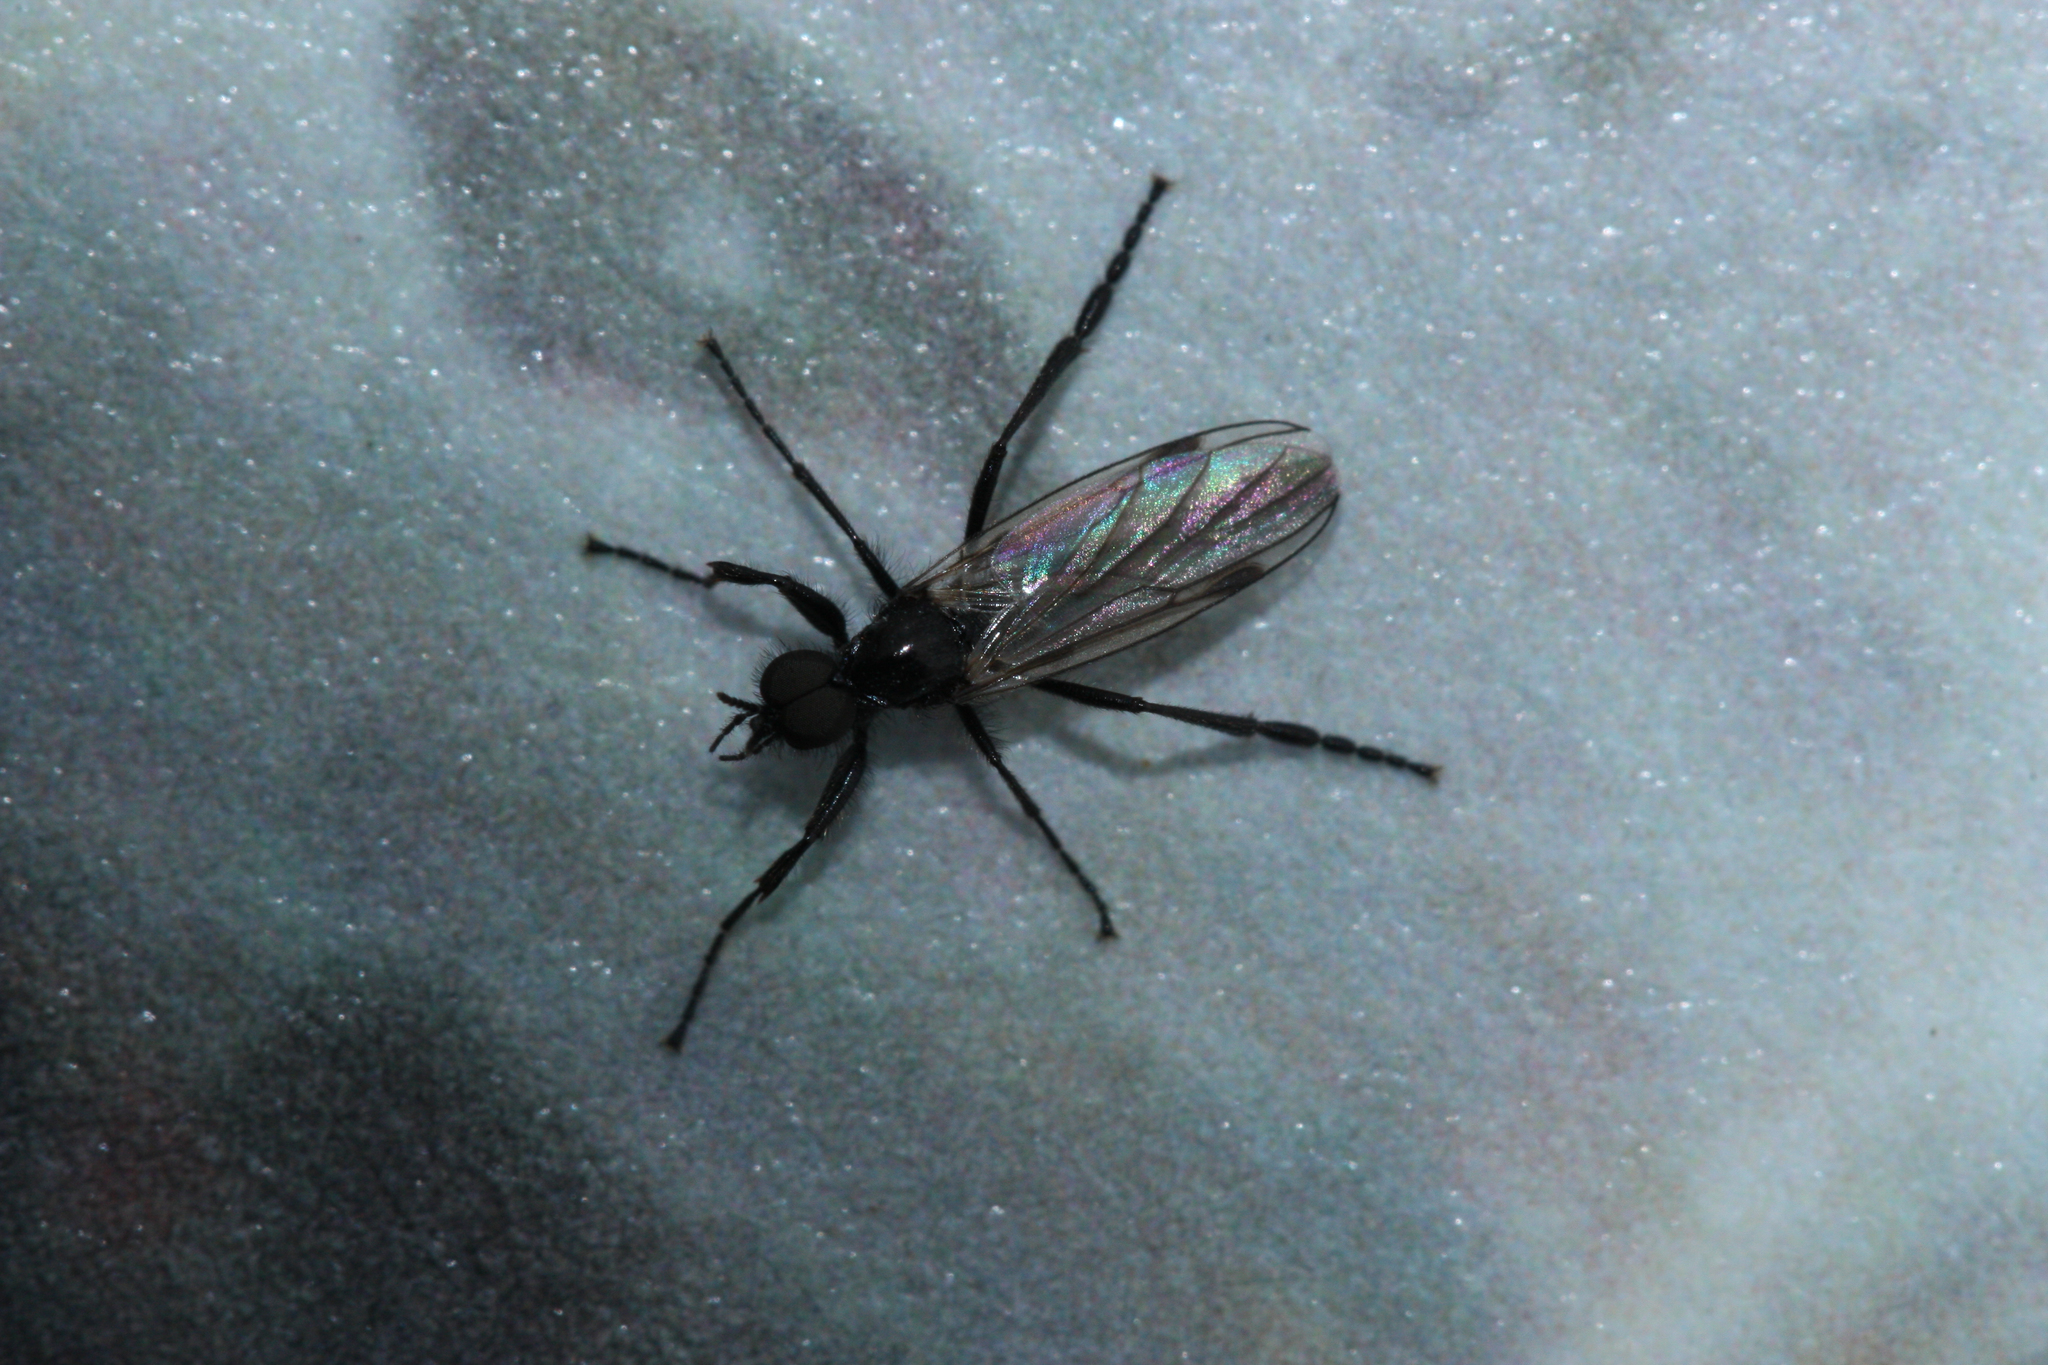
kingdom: Animalia
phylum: Arthropoda
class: Insecta
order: Diptera
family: Bibionidae
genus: Bibio
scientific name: Bibio slossonae
